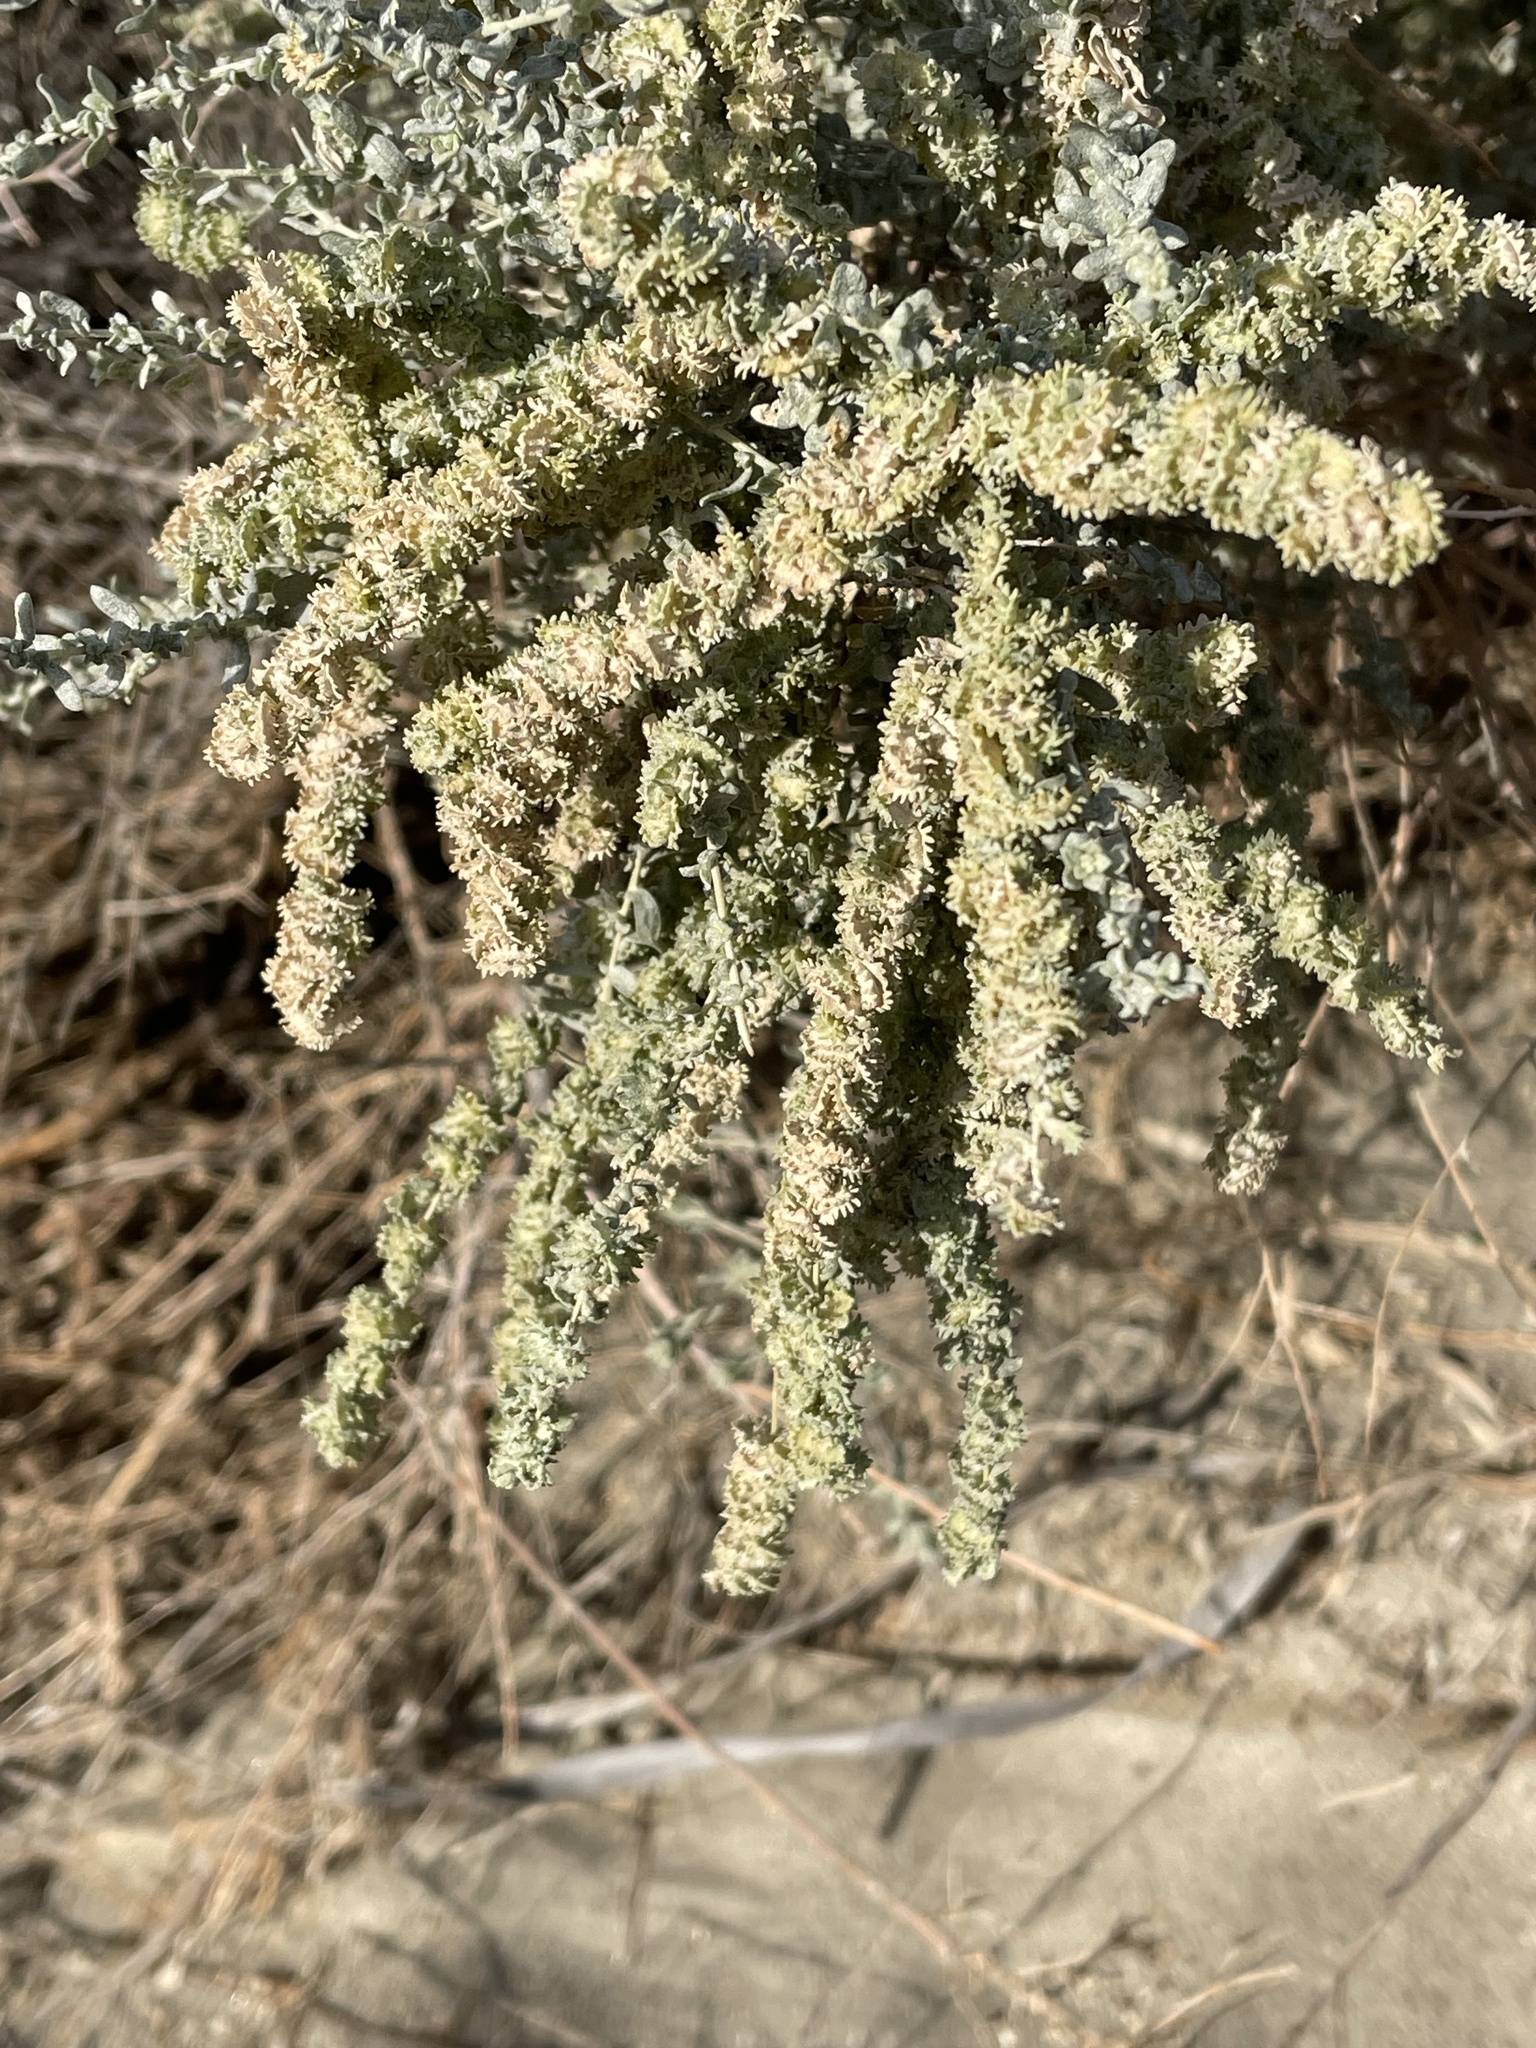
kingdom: Plantae
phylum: Tracheophyta
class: Magnoliopsida
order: Caryophyllales
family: Amaranthaceae
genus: Atriplex
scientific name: Atriplex polycarpa
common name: Desert saltbush
